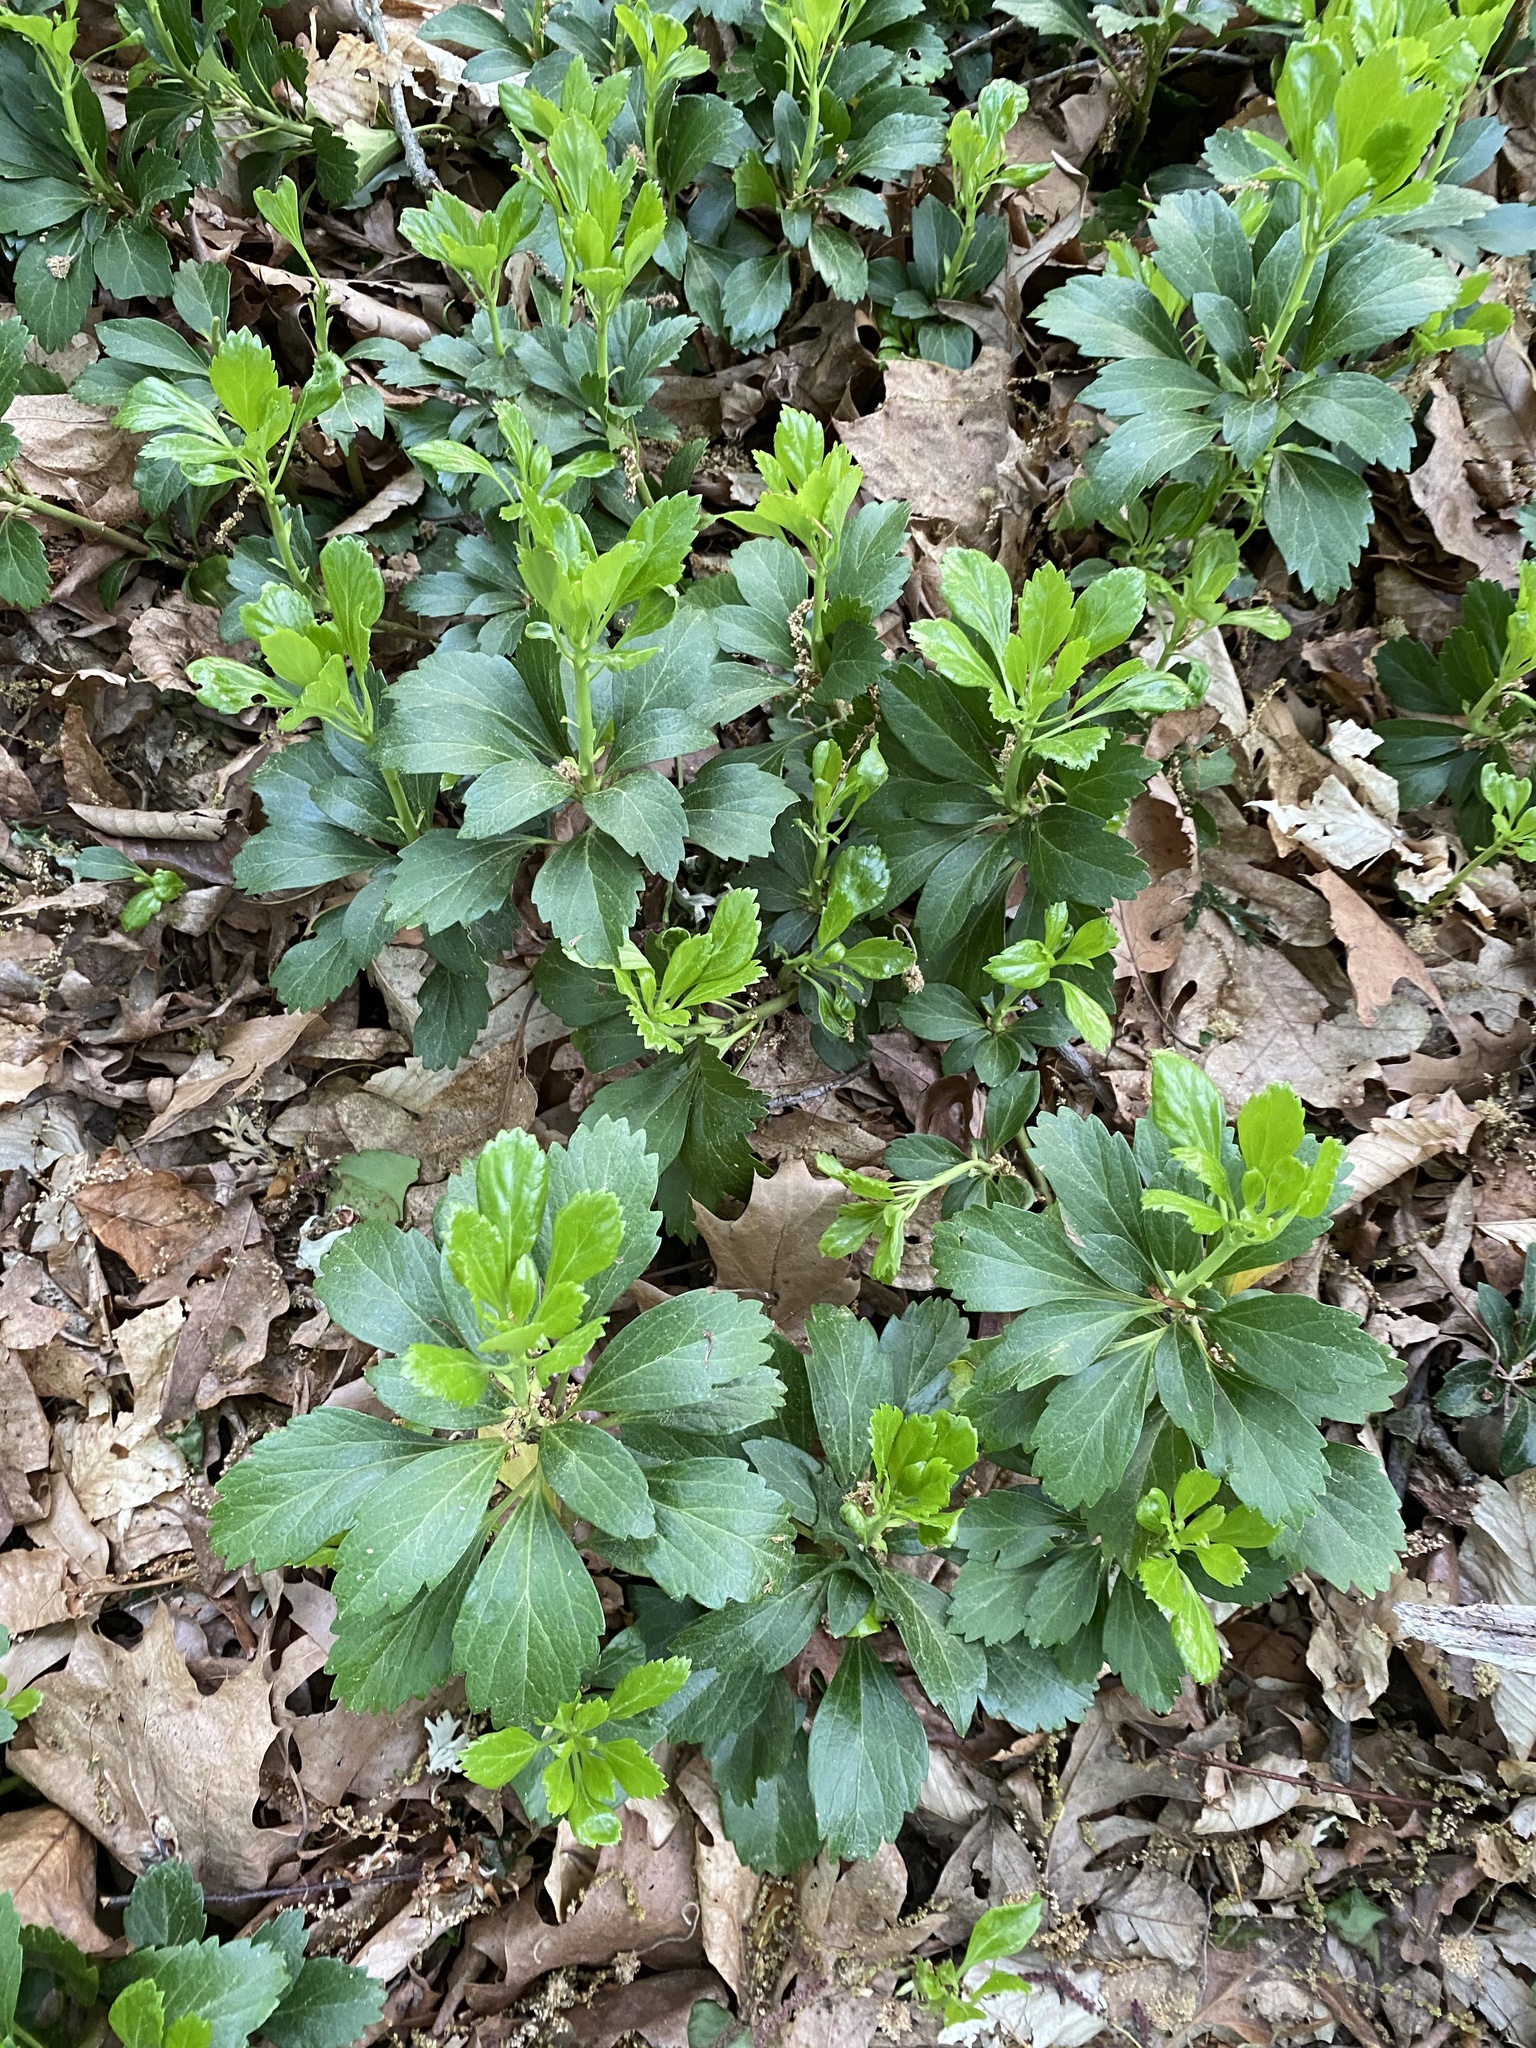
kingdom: Plantae
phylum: Tracheophyta
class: Magnoliopsida
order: Buxales
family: Buxaceae
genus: Pachysandra
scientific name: Pachysandra terminalis
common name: Japanese pachysandra
